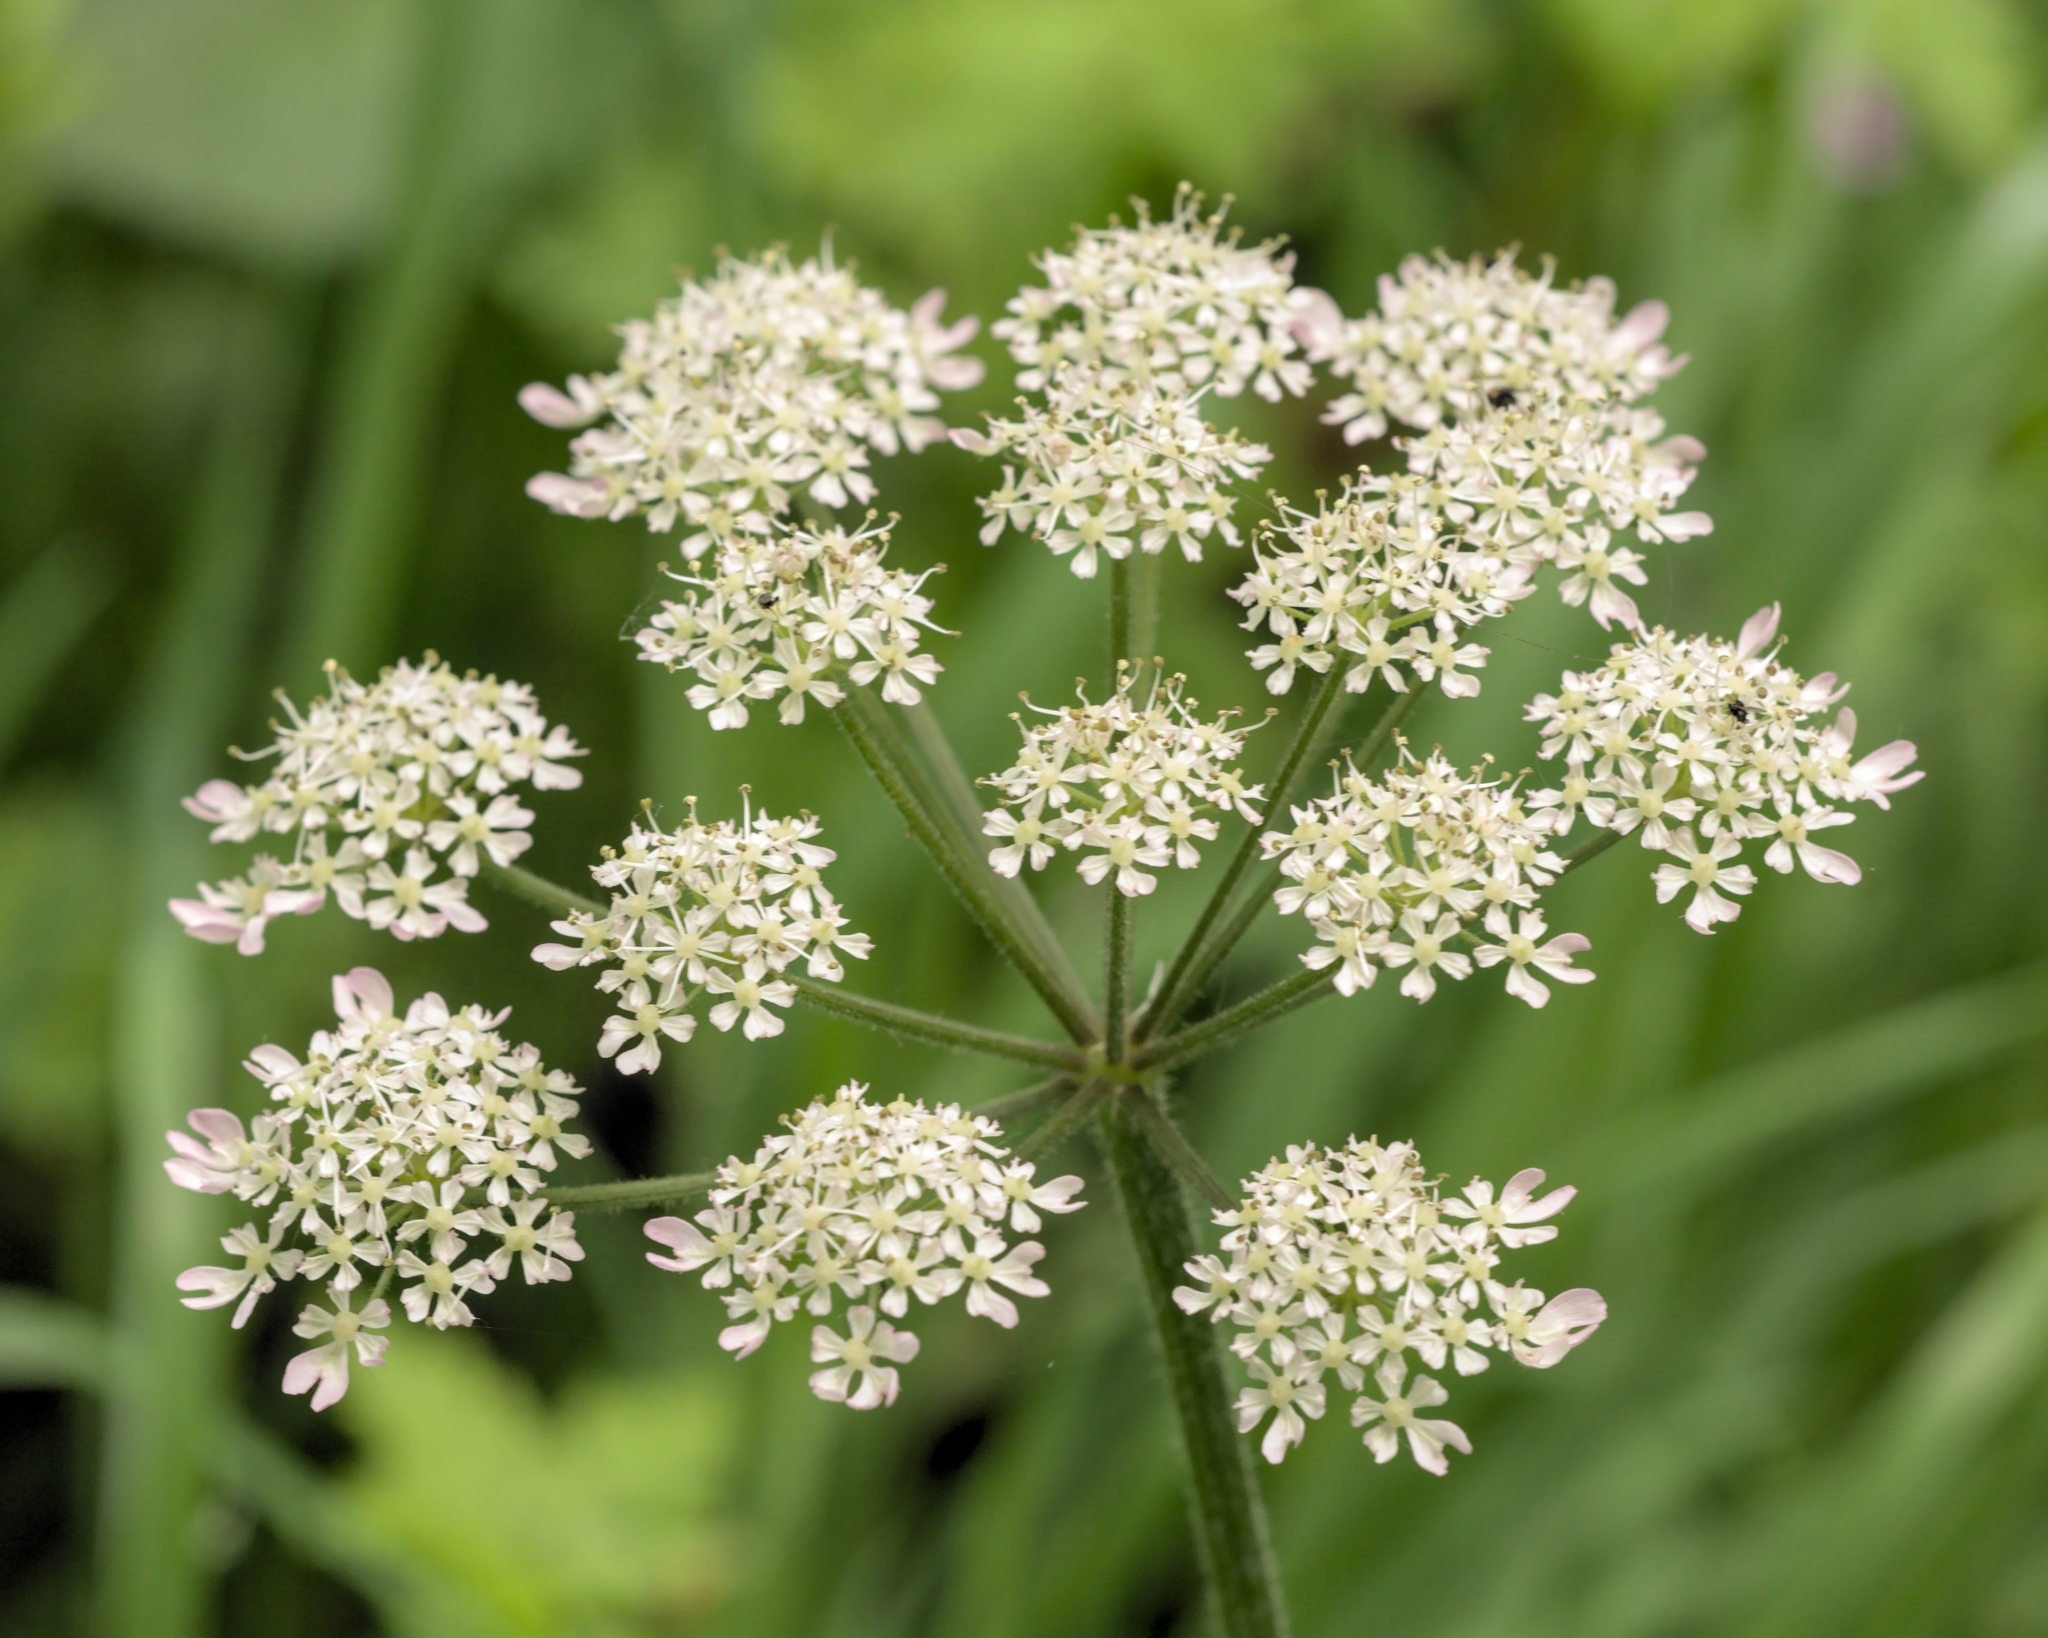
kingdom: Plantae
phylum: Tracheophyta
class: Magnoliopsida
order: Apiales
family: Apiaceae
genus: Heracleum
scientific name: Heracleum sphondylium
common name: Hogweed
